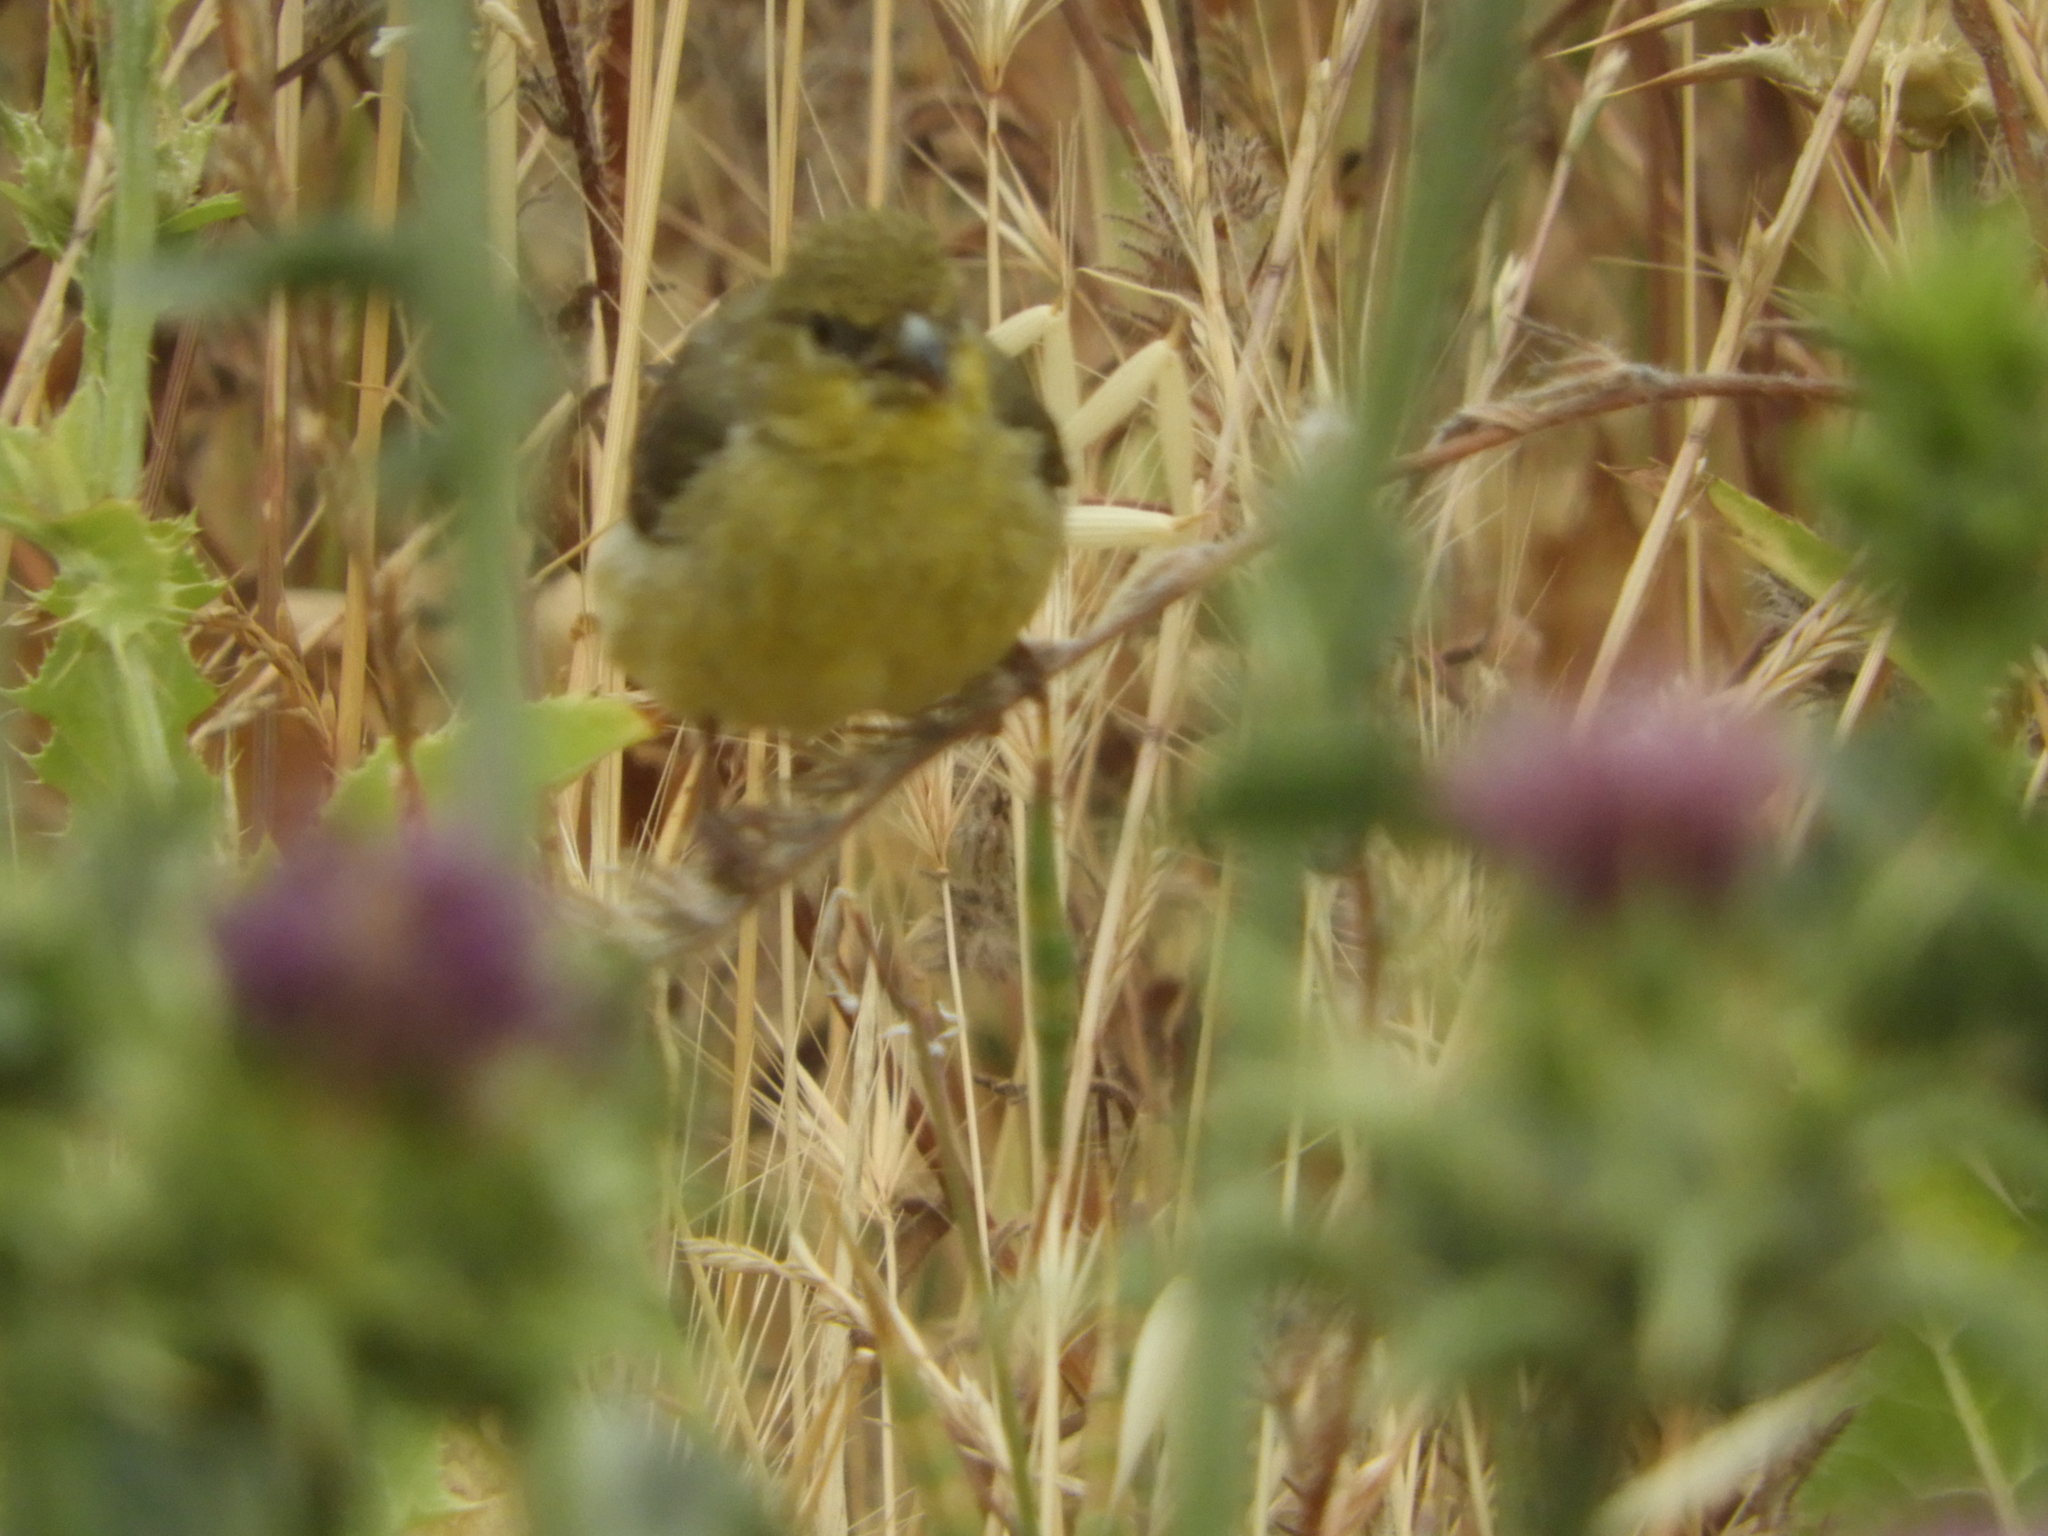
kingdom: Animalia
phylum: Chordata
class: Aves
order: Passeriformes
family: Fringillidae
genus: Spinus
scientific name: Spinus psaltria
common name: Lesser goldfinch
